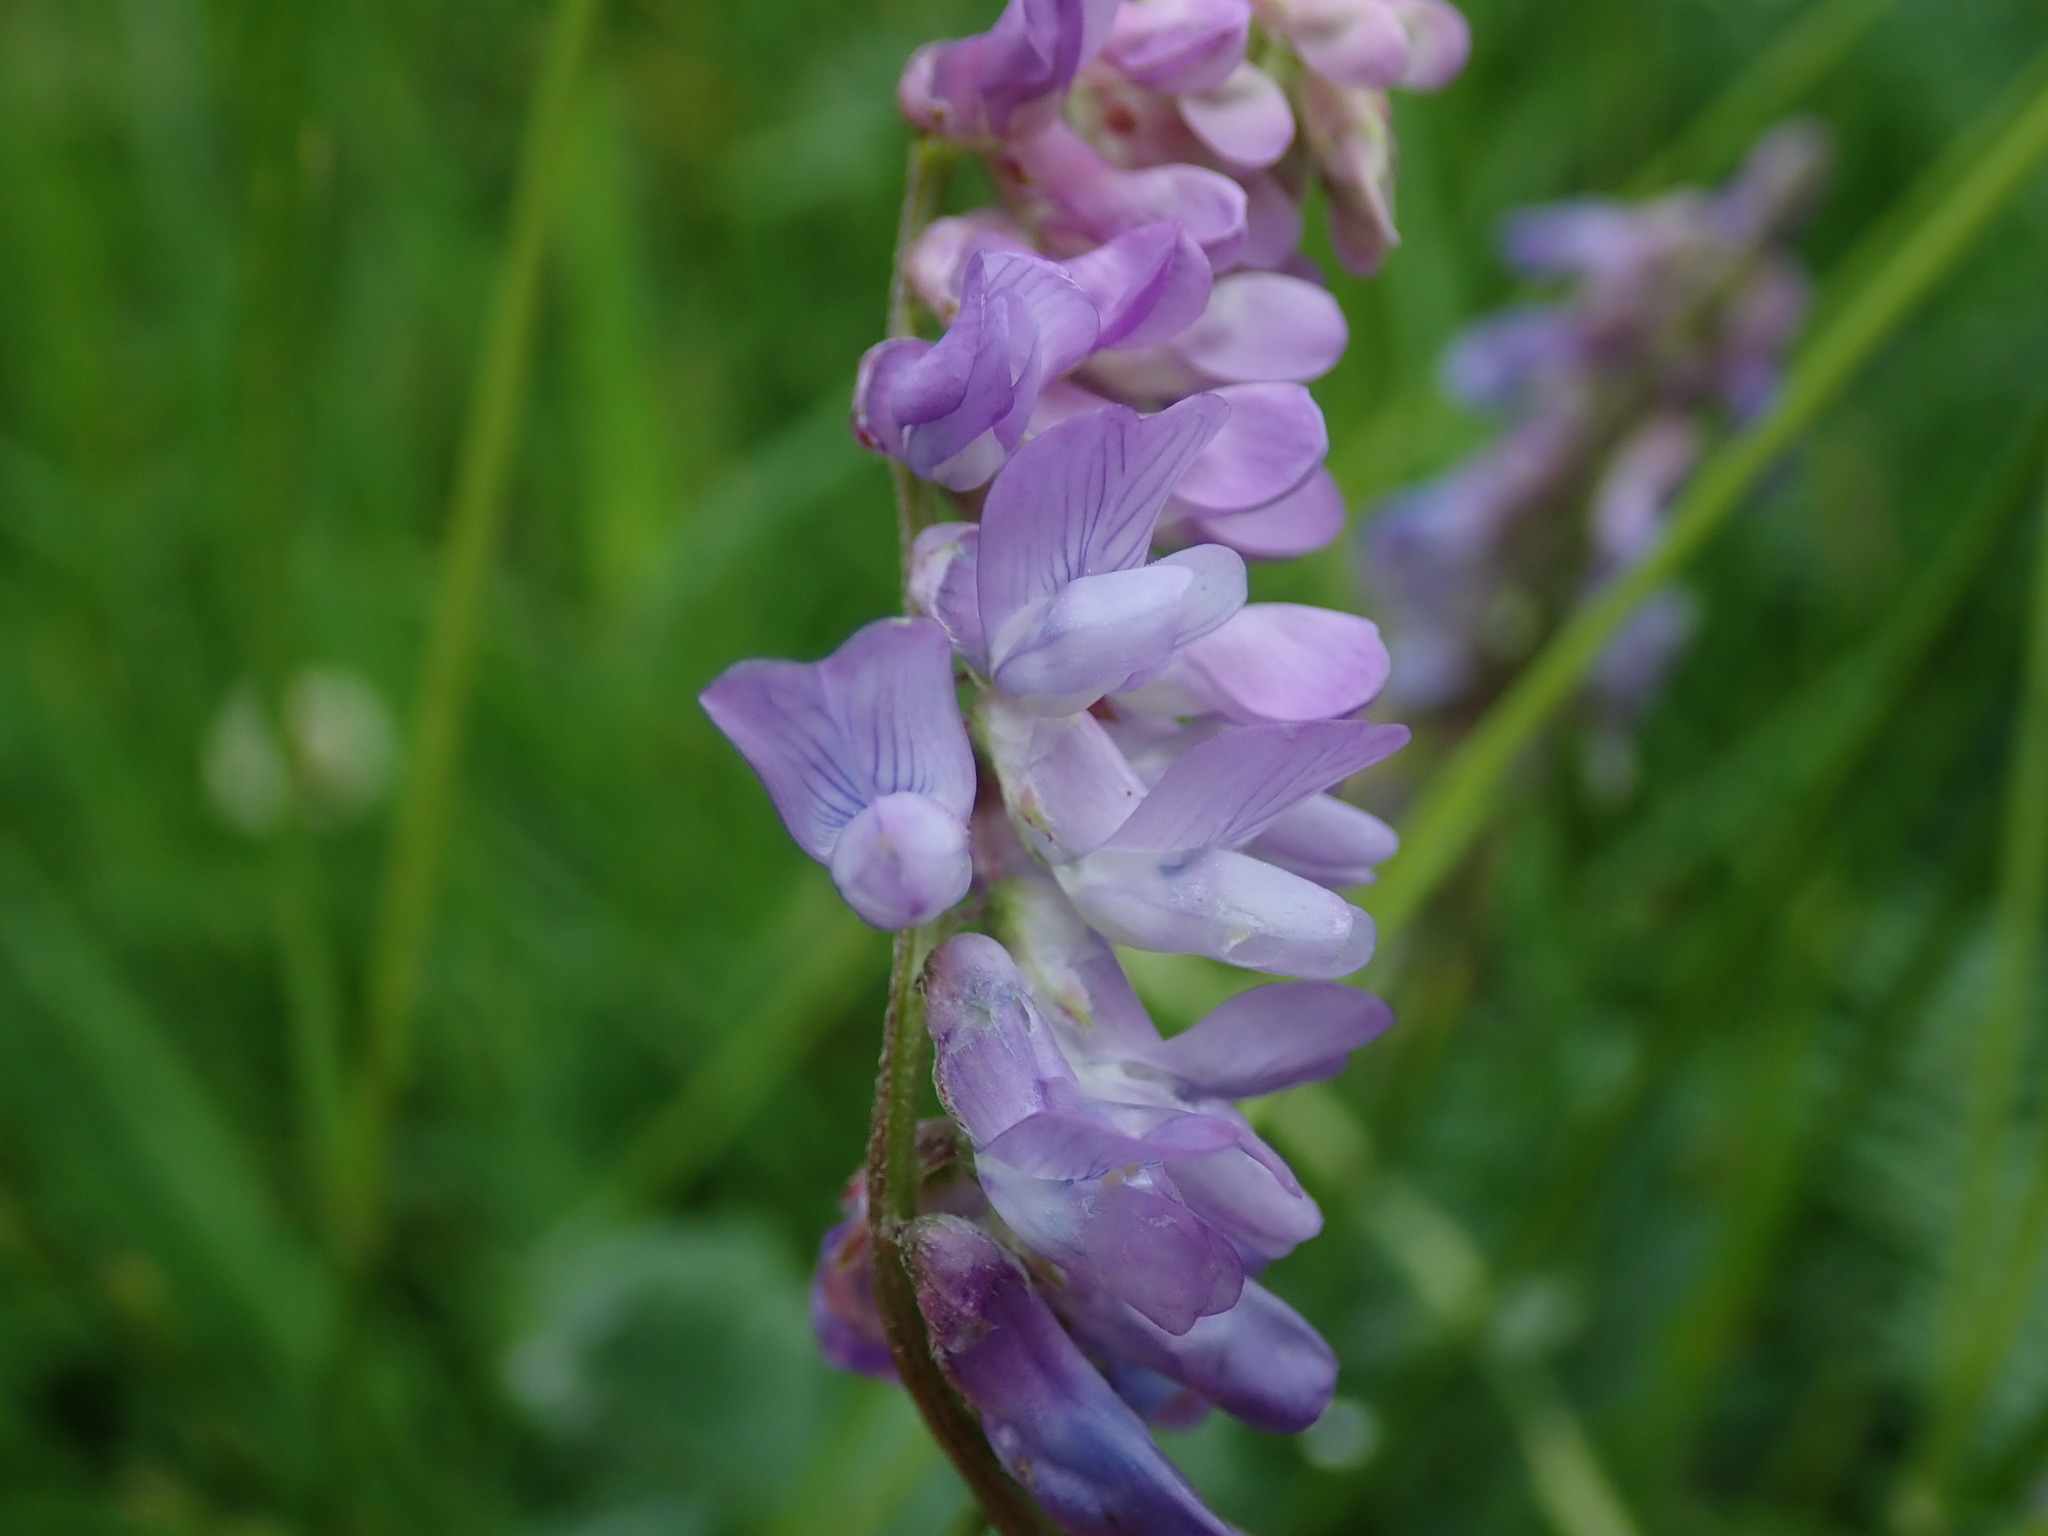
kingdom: Plantae
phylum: Tracheophyta
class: Magnoliopsida
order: Fabales
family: Fabaceae
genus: Vicia
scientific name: Vicia cracca
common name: Bird vetch
